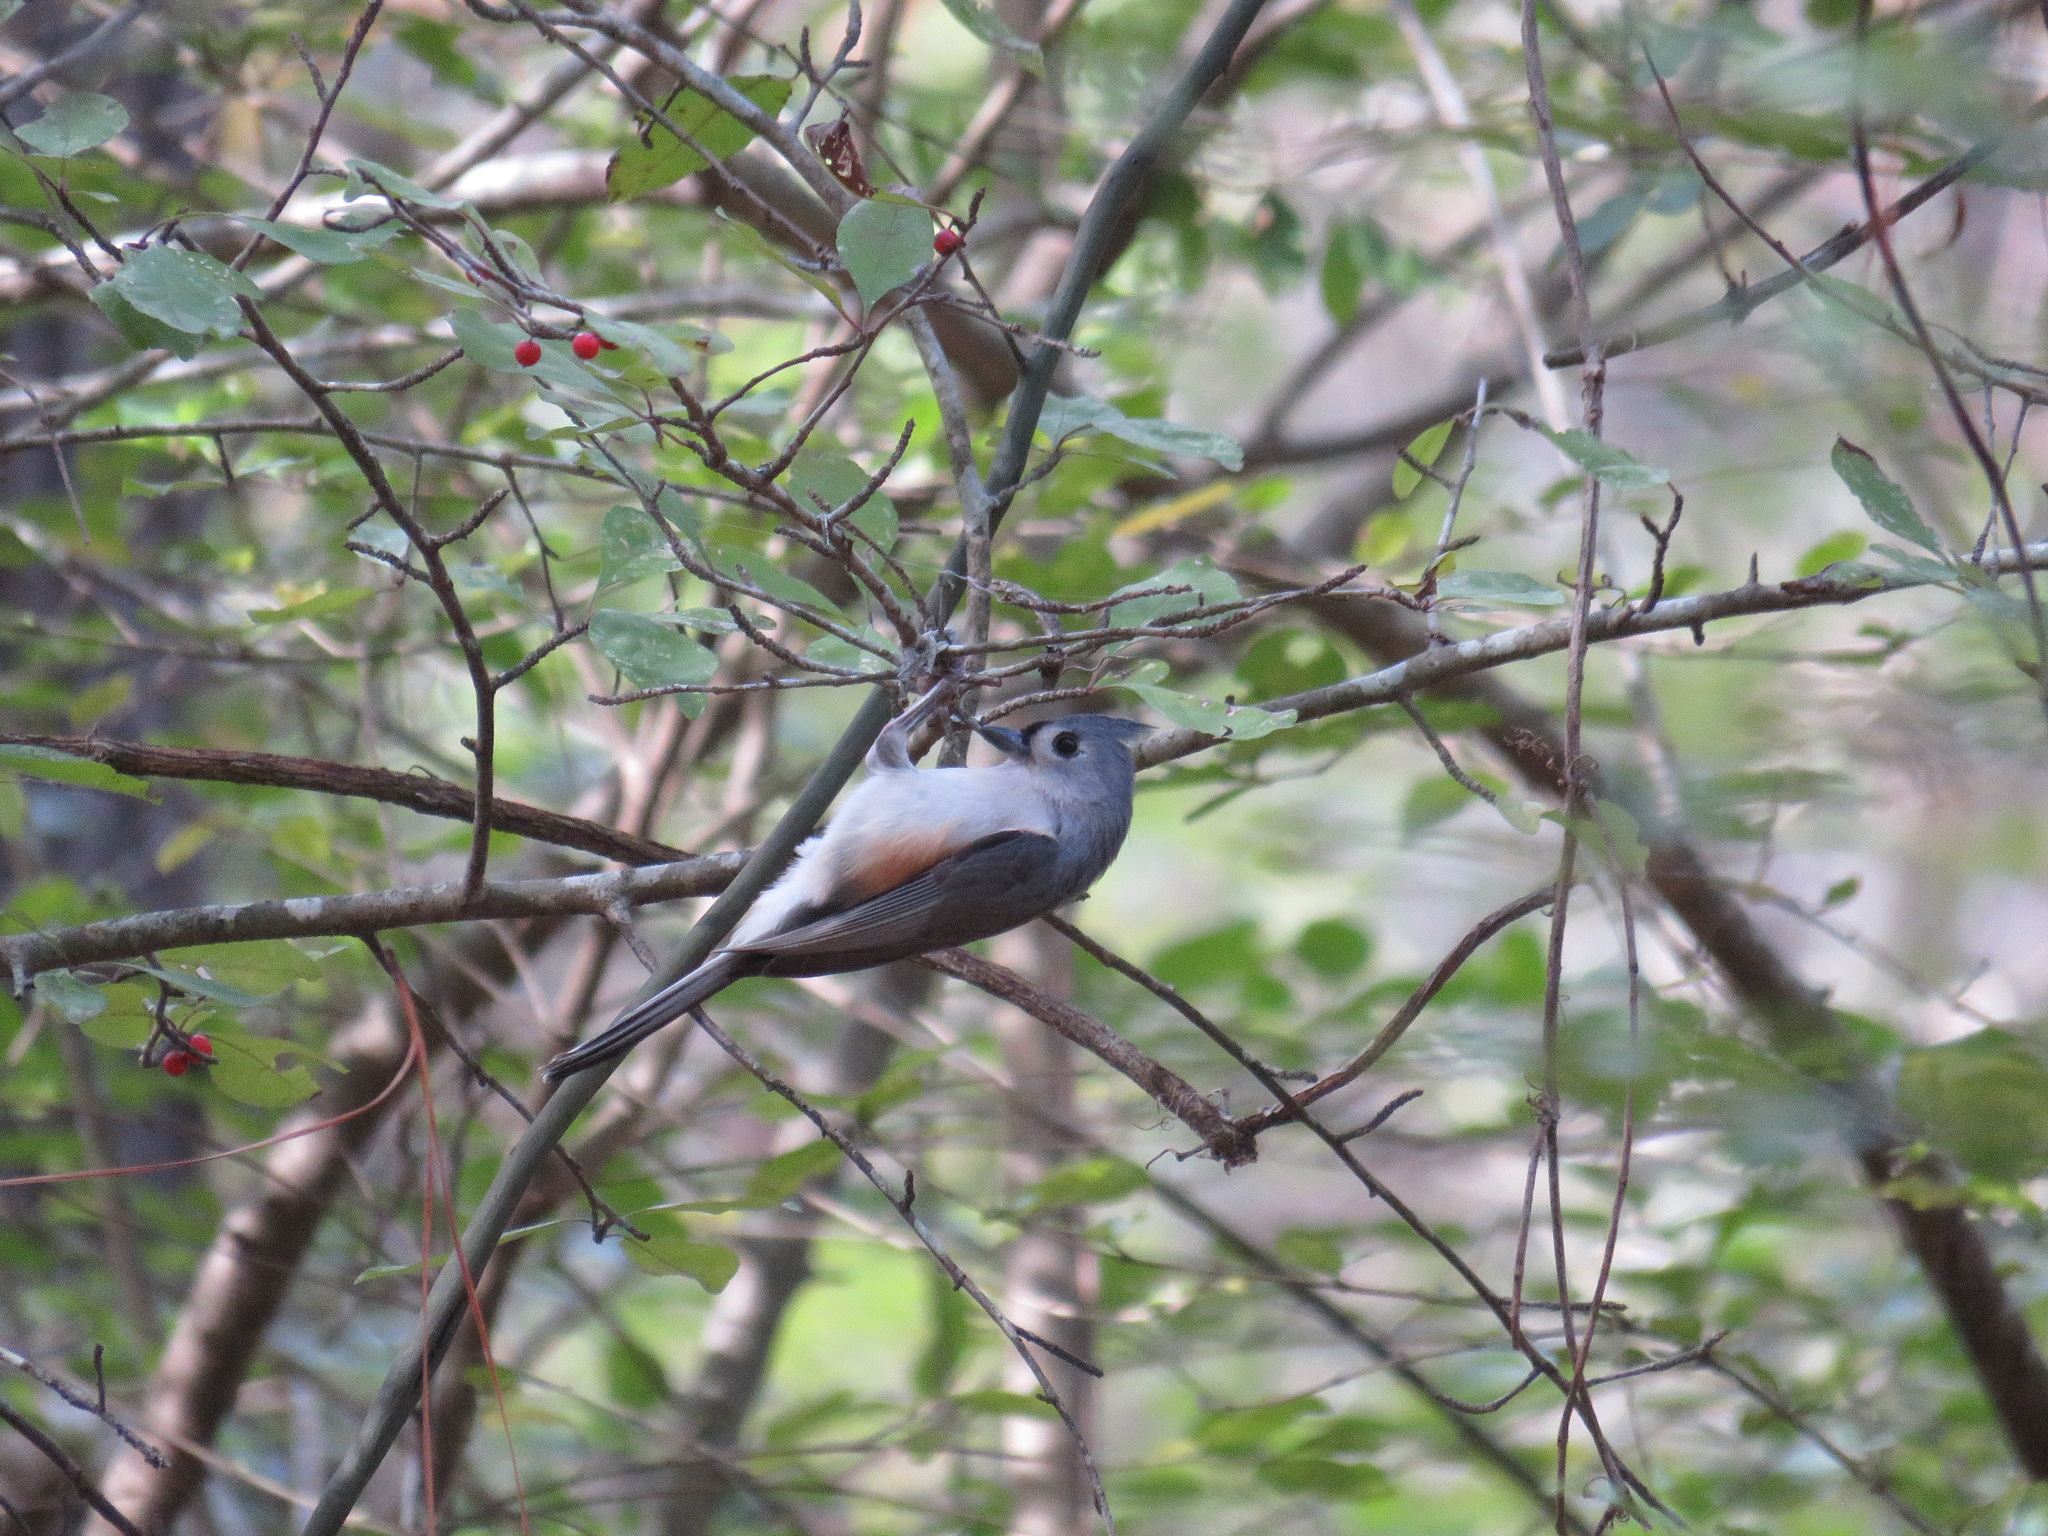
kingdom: Animalia
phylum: Chordata
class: Aves
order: Passeriformes
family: Paridae
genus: Baeolophus
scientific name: Baeolophus bicolor
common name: Tufted titmouse
